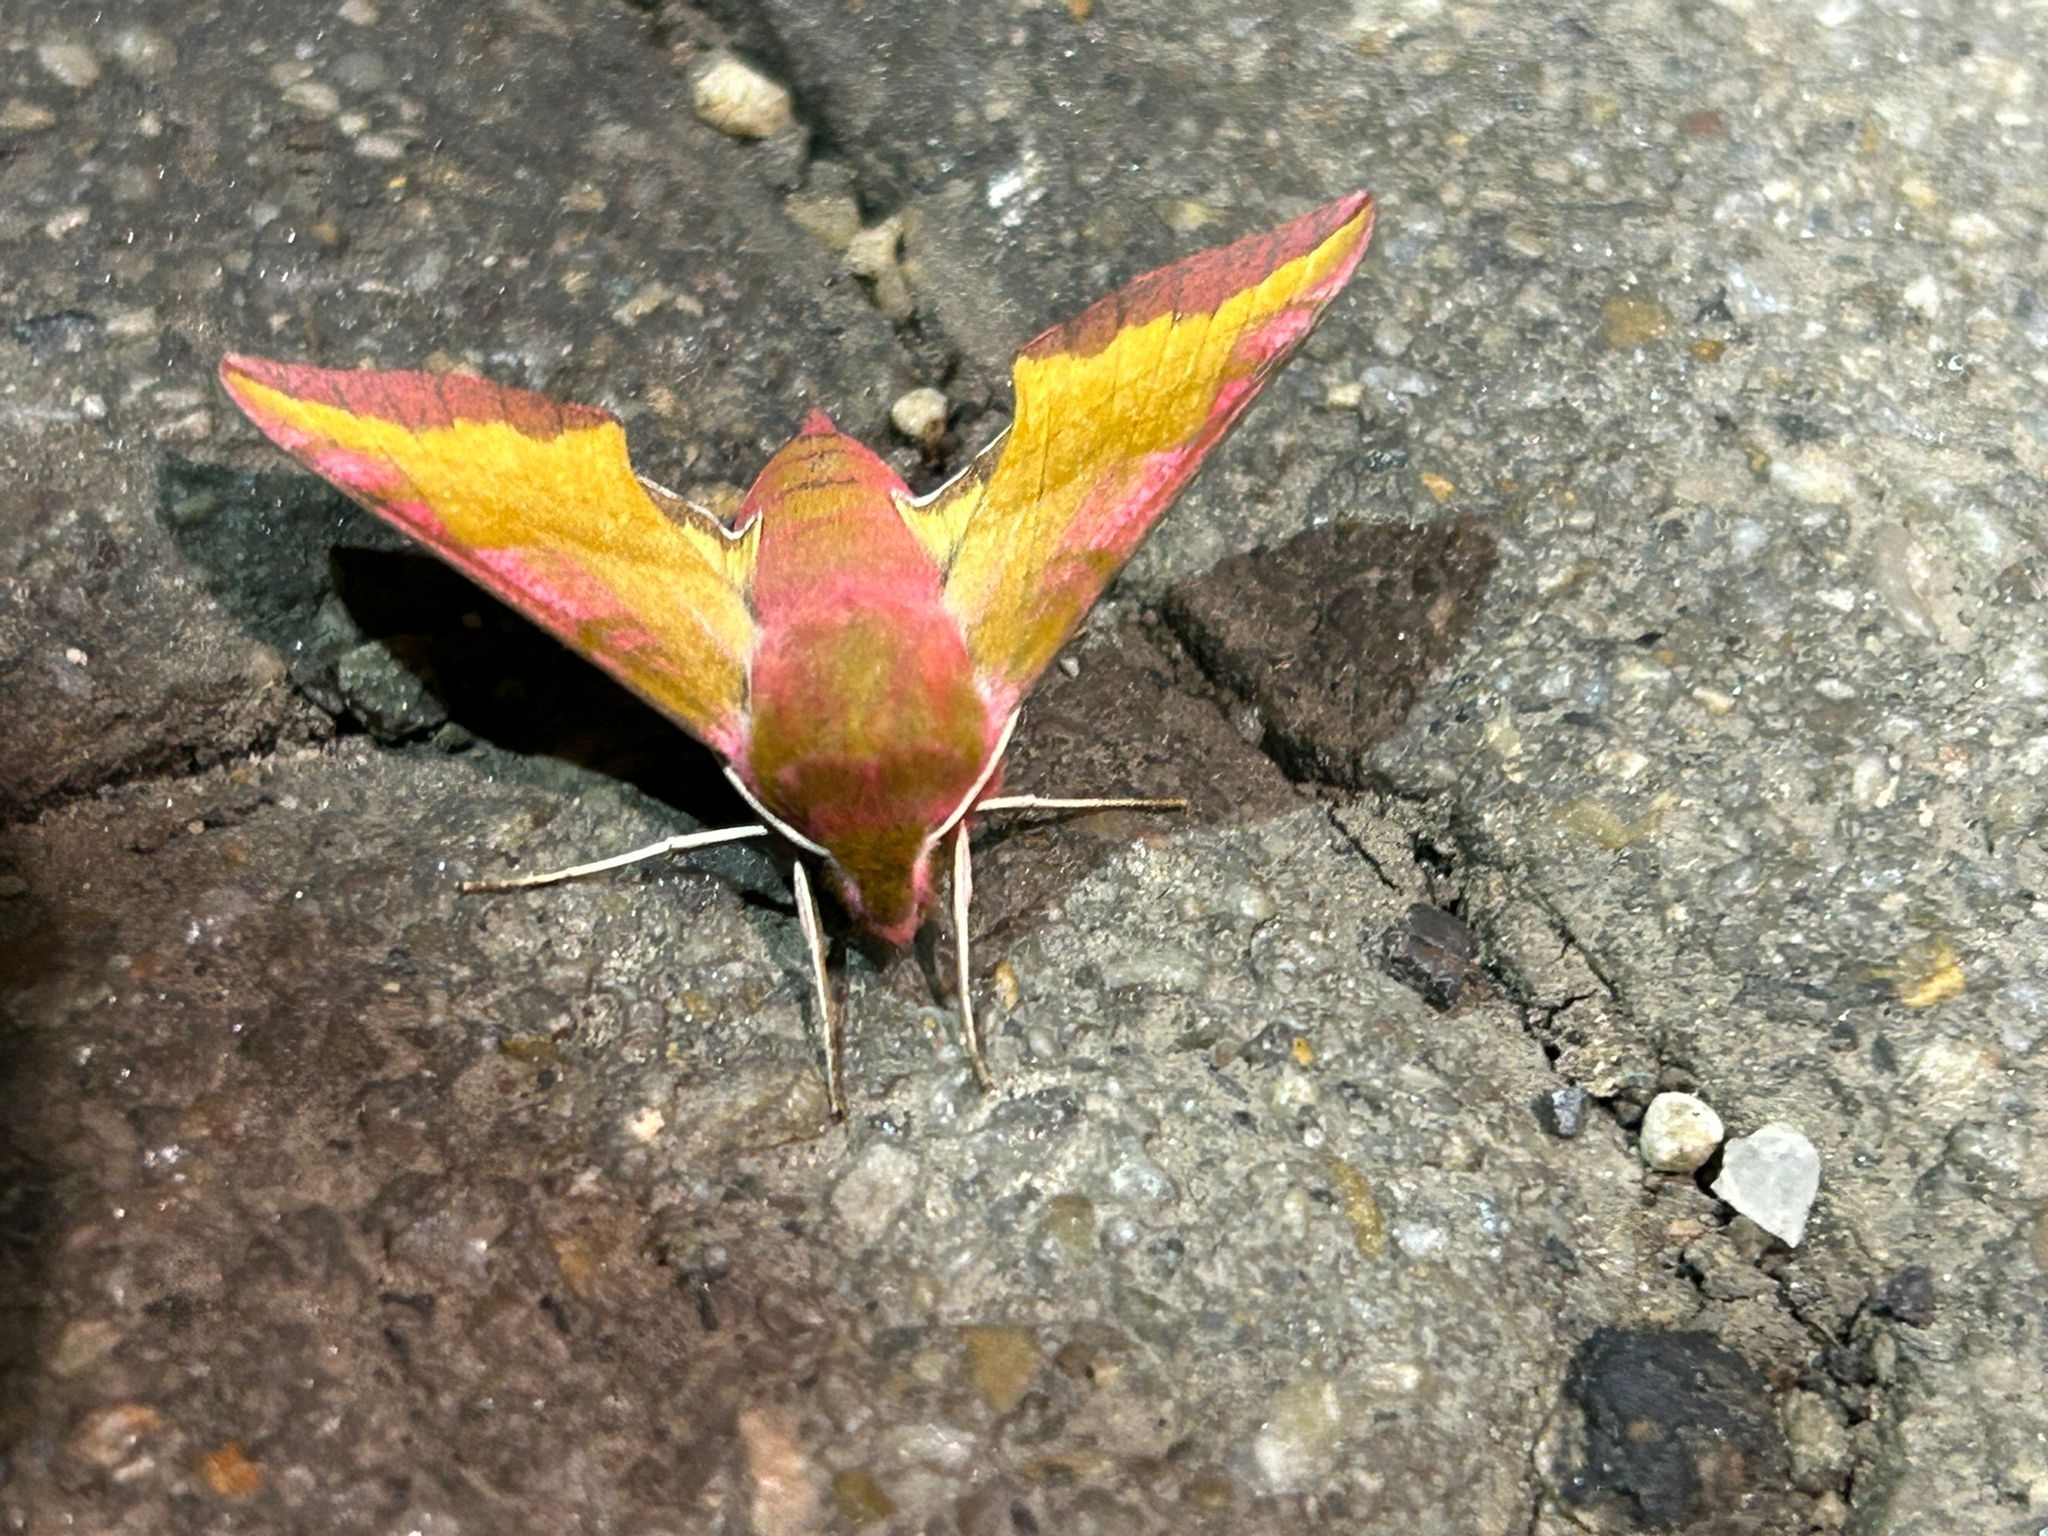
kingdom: Animalia
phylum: Arthropoda
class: Insecta
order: Lepidoptera
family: Sphingidae
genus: Deilephila
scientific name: Deilephila porcellus
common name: Small elephant hawk-moth
